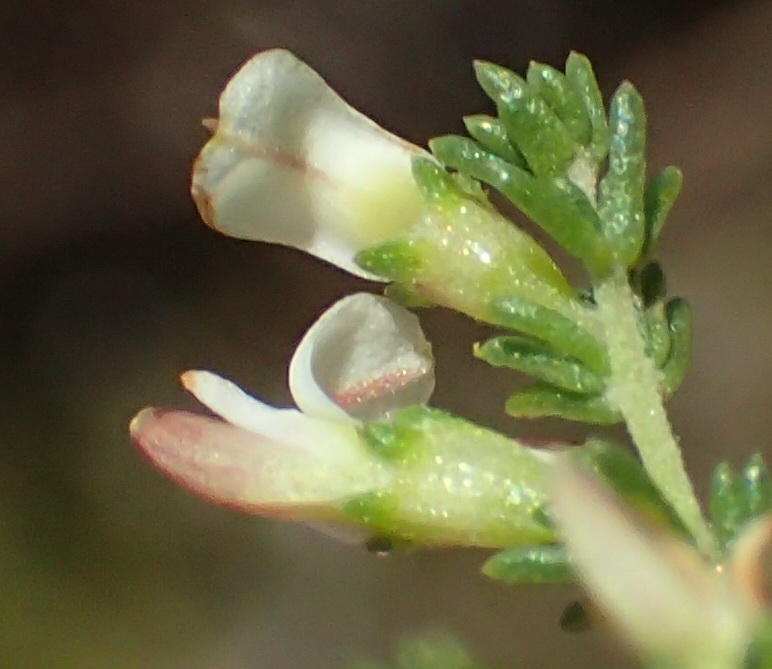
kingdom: Plantae
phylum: Tracheophyta
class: Magnoliopsida
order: Fabales
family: Fabaceae
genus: Aspalathus
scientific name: Aspalathus hispida
